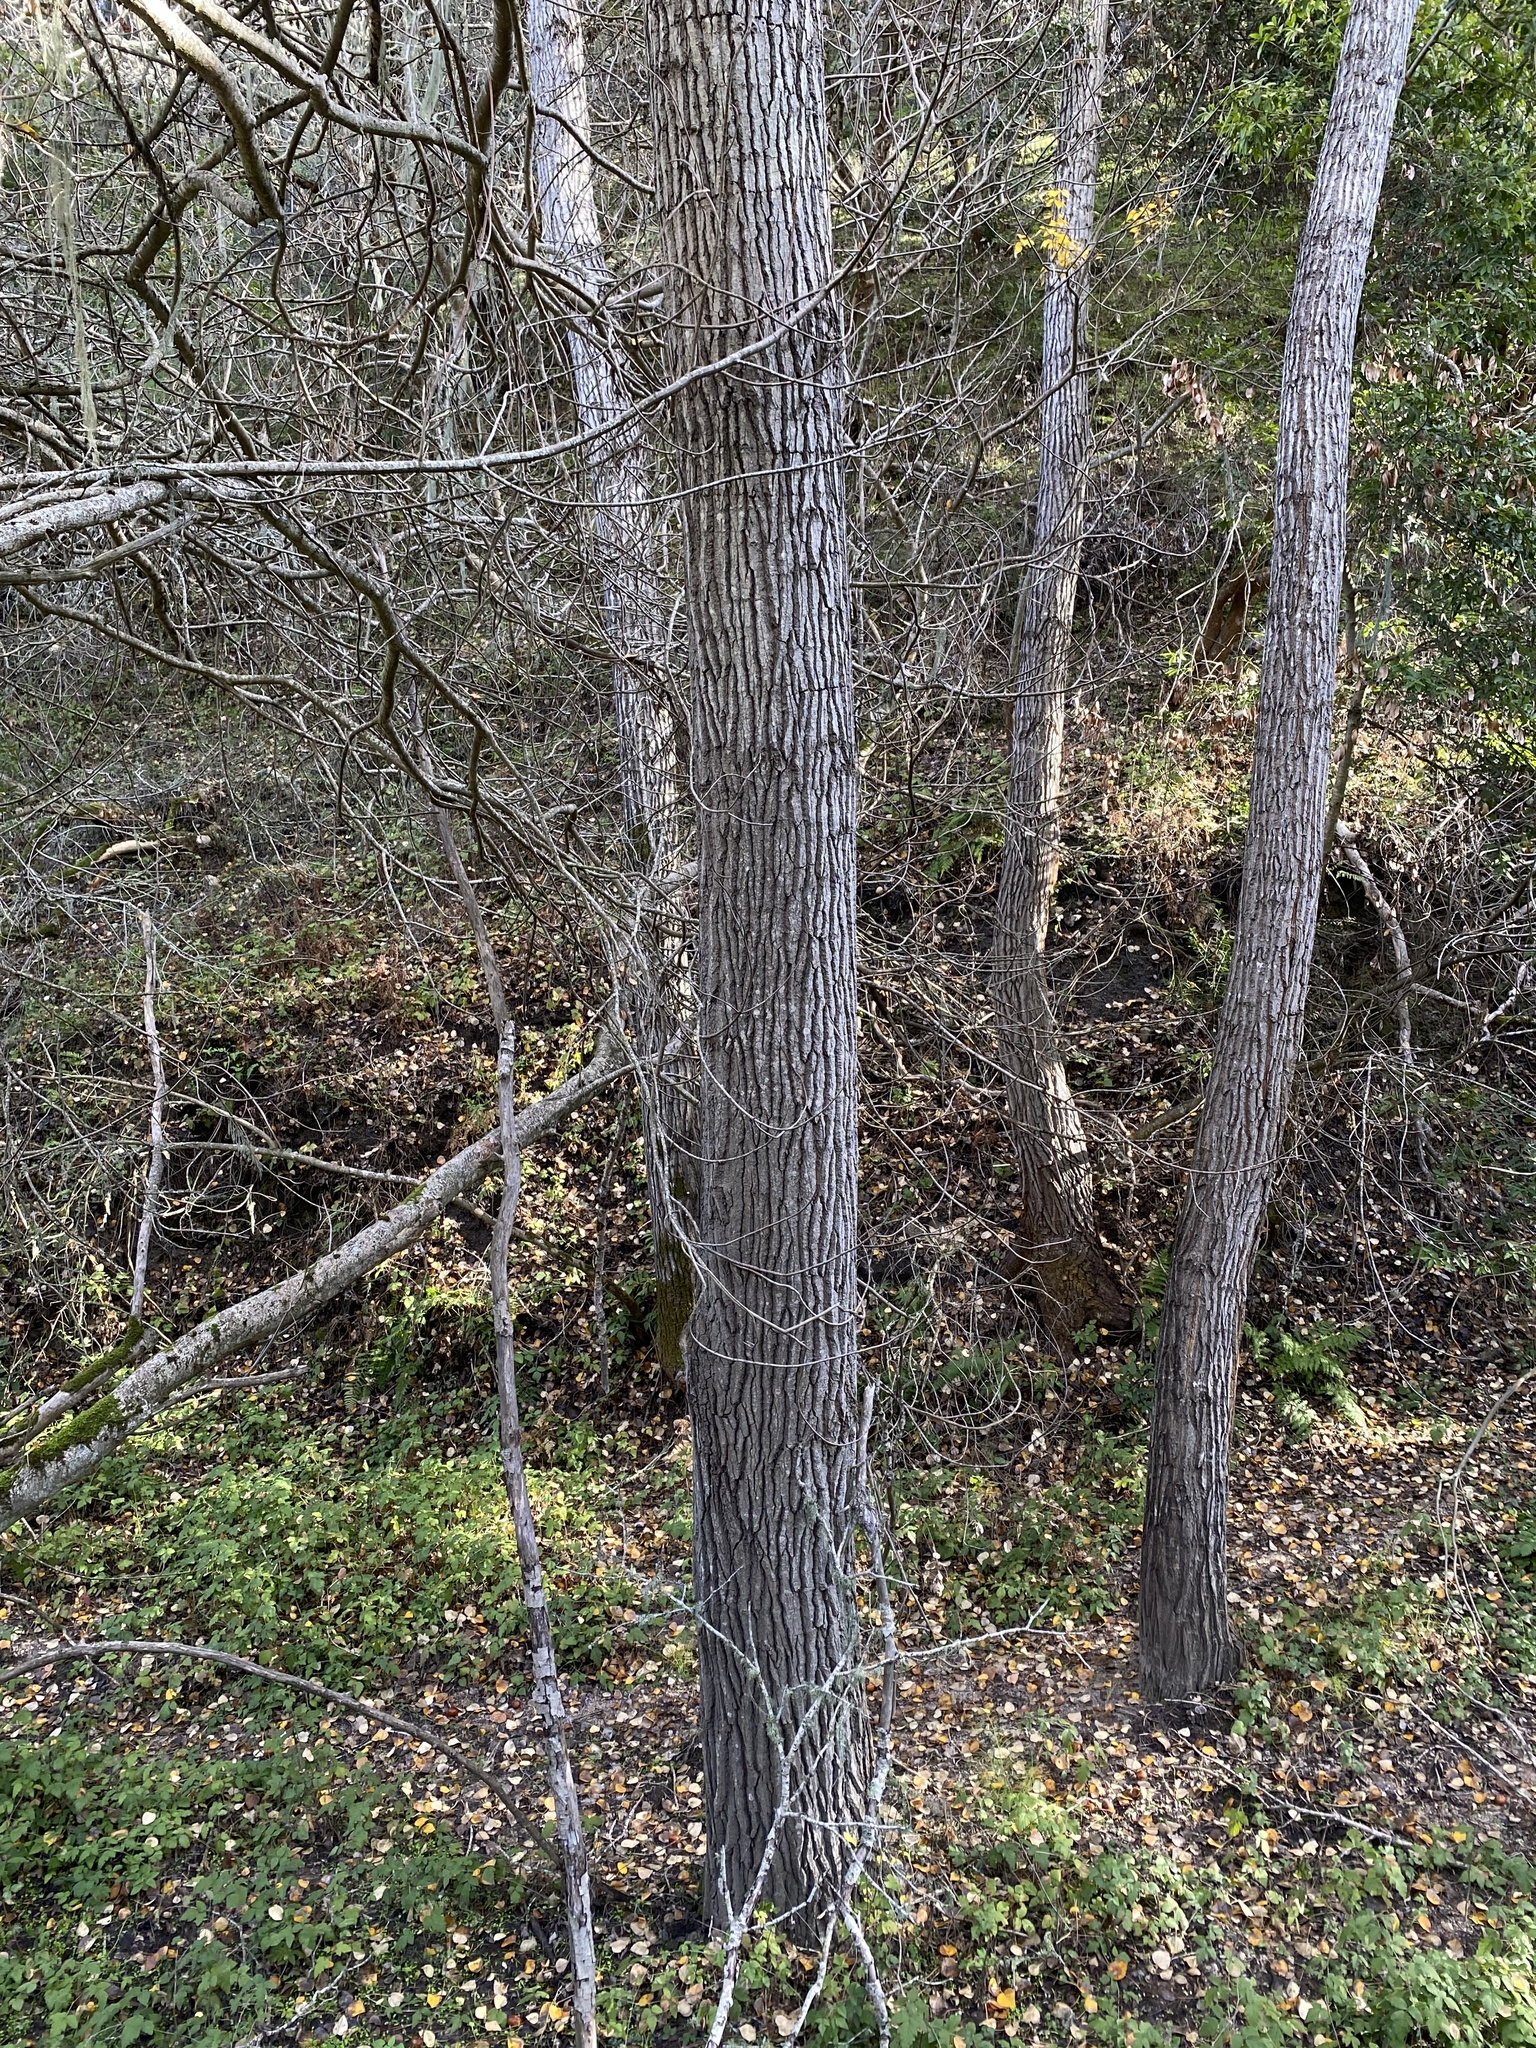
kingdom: Plantae
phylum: Tracheophyta
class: Magnoliopsida
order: Malpighiales
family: Salicaceae
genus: Populus
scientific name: Populus trichocarpa
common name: Black cottonwood
